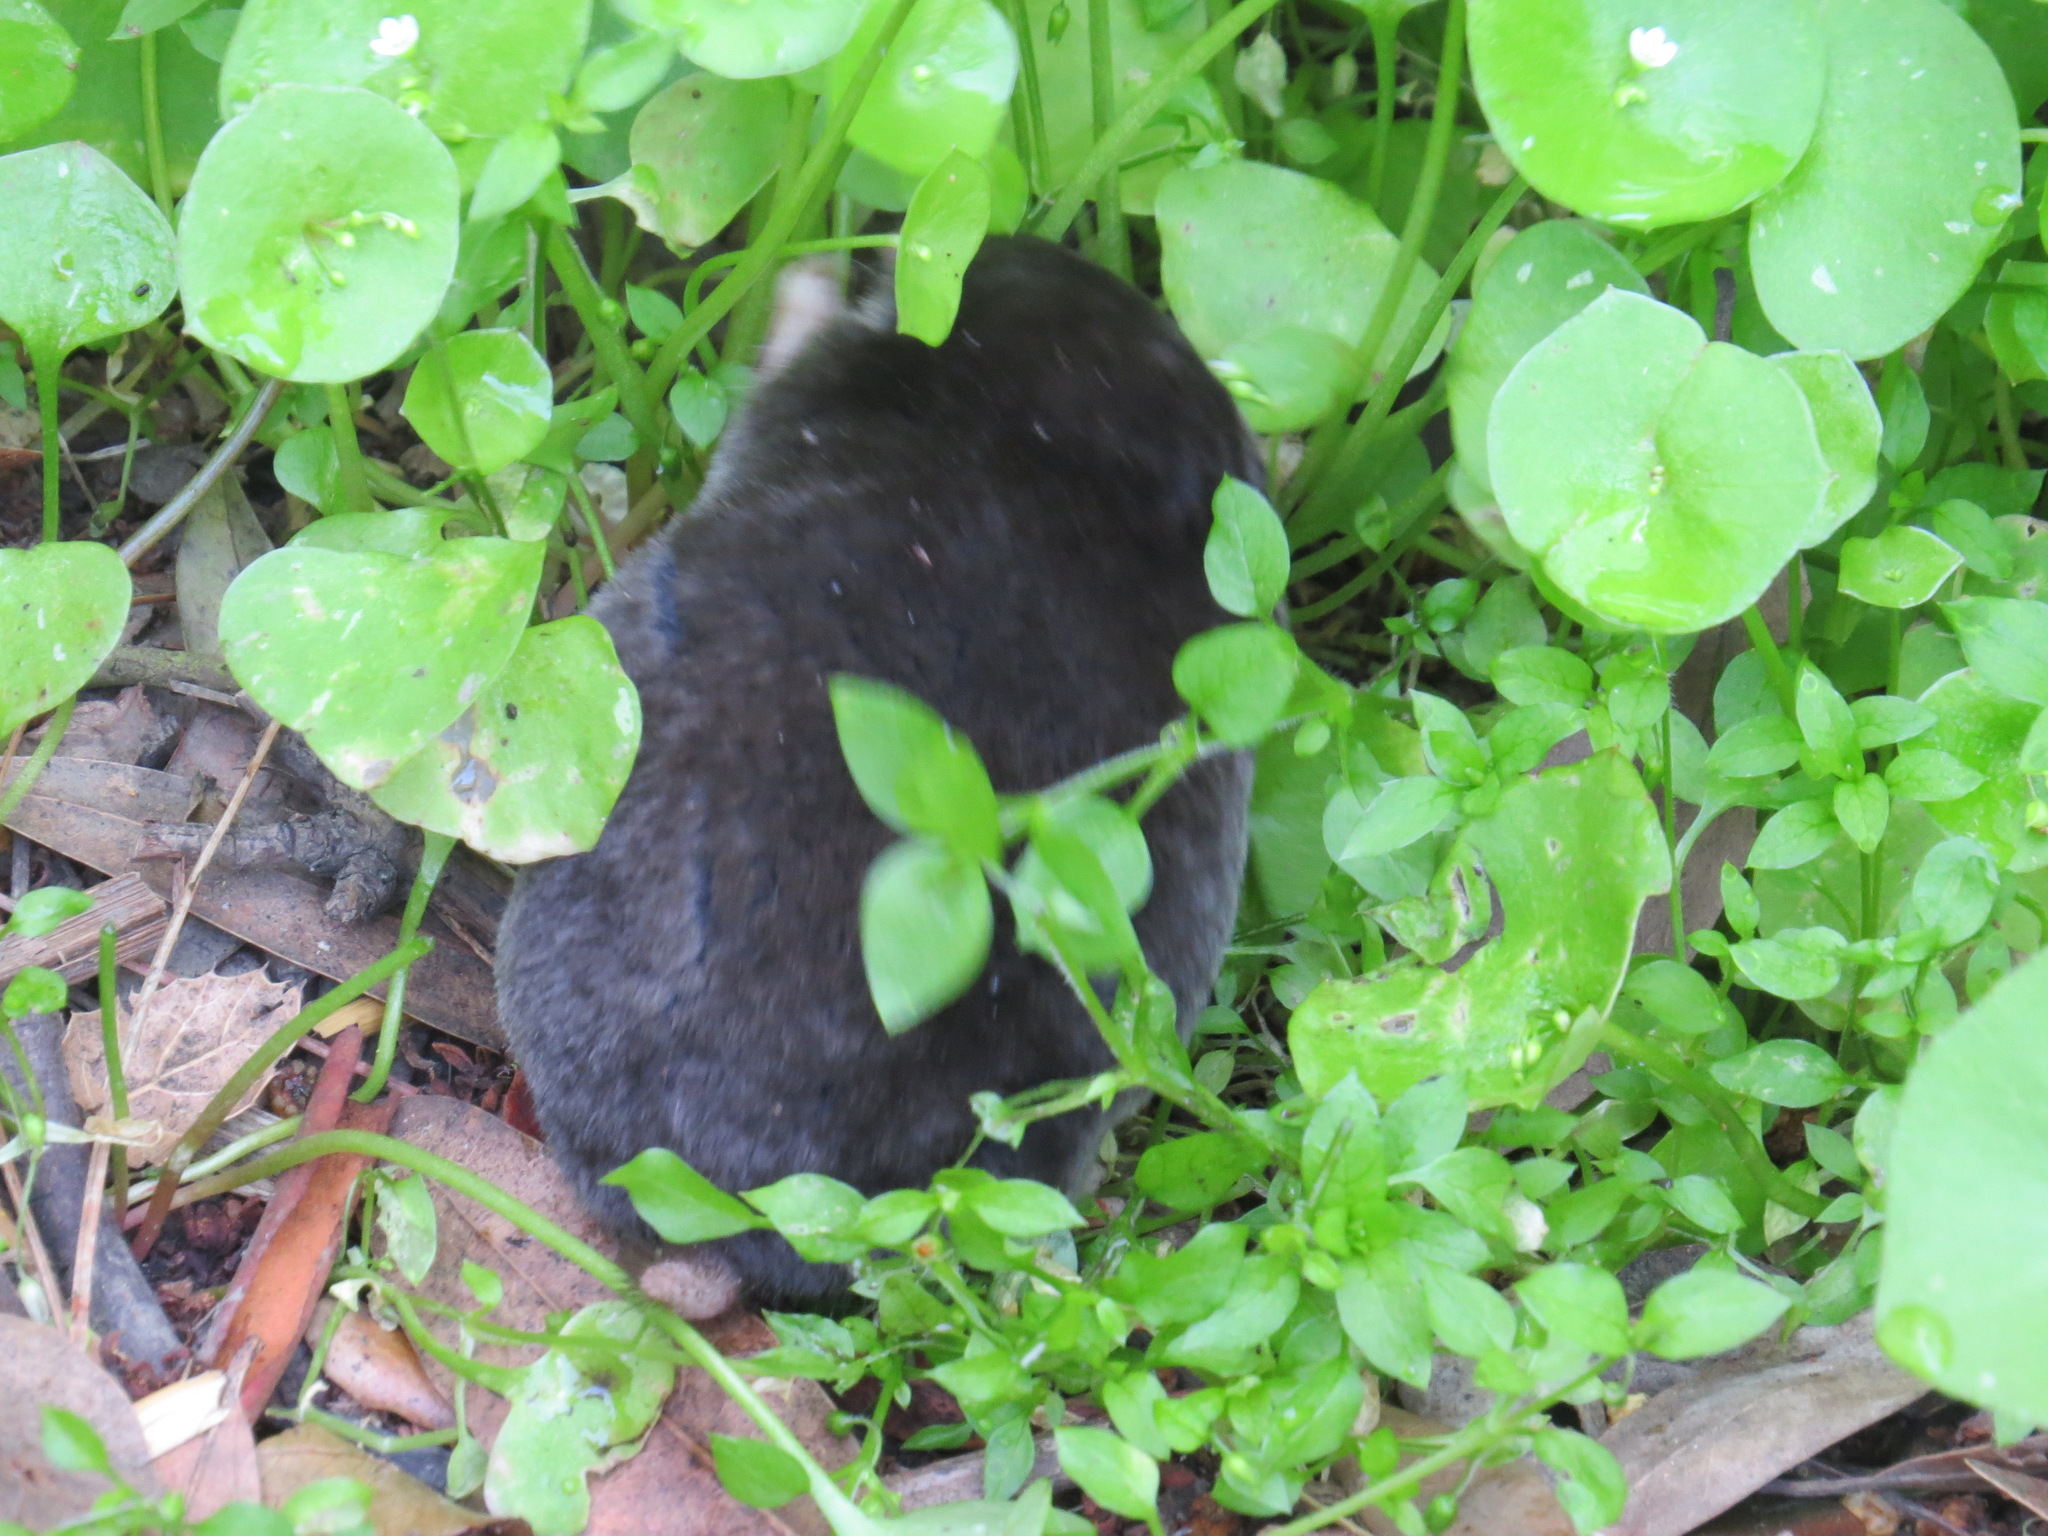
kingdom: Animalia
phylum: Chordata
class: Mammalia
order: Soricomorpha
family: Talpidae
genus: Scapanus
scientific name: Scapanus latimanus
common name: Broad-footed mole
